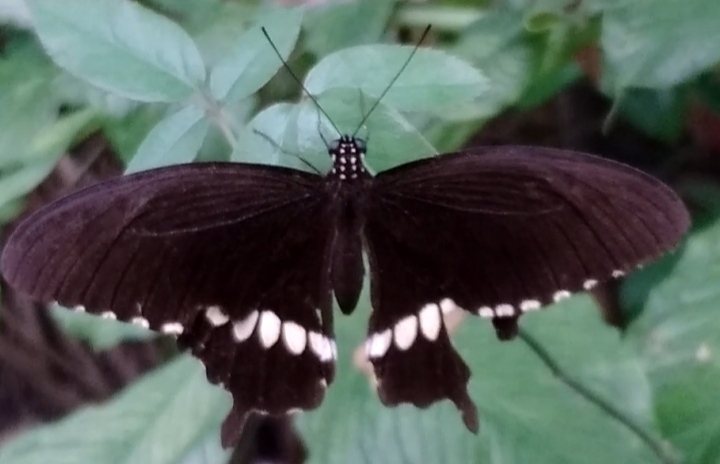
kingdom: Animalia
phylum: Arthropoda
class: Insecta
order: Lepidoptera
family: Papilionidae
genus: Papilio
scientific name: Papilio polytes
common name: Common mormon
